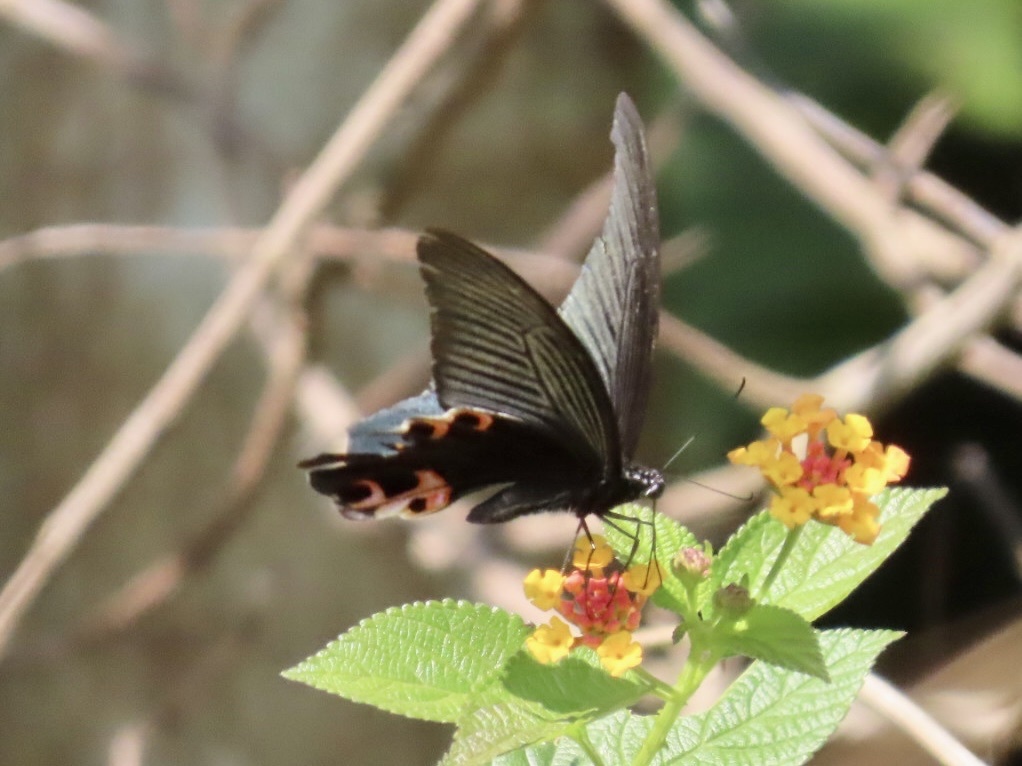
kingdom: Animalia
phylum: Arthropoda
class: Insecta
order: Lepidoptera
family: Papilionidae
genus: Papilio
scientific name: Papilio protenor
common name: Spangle
